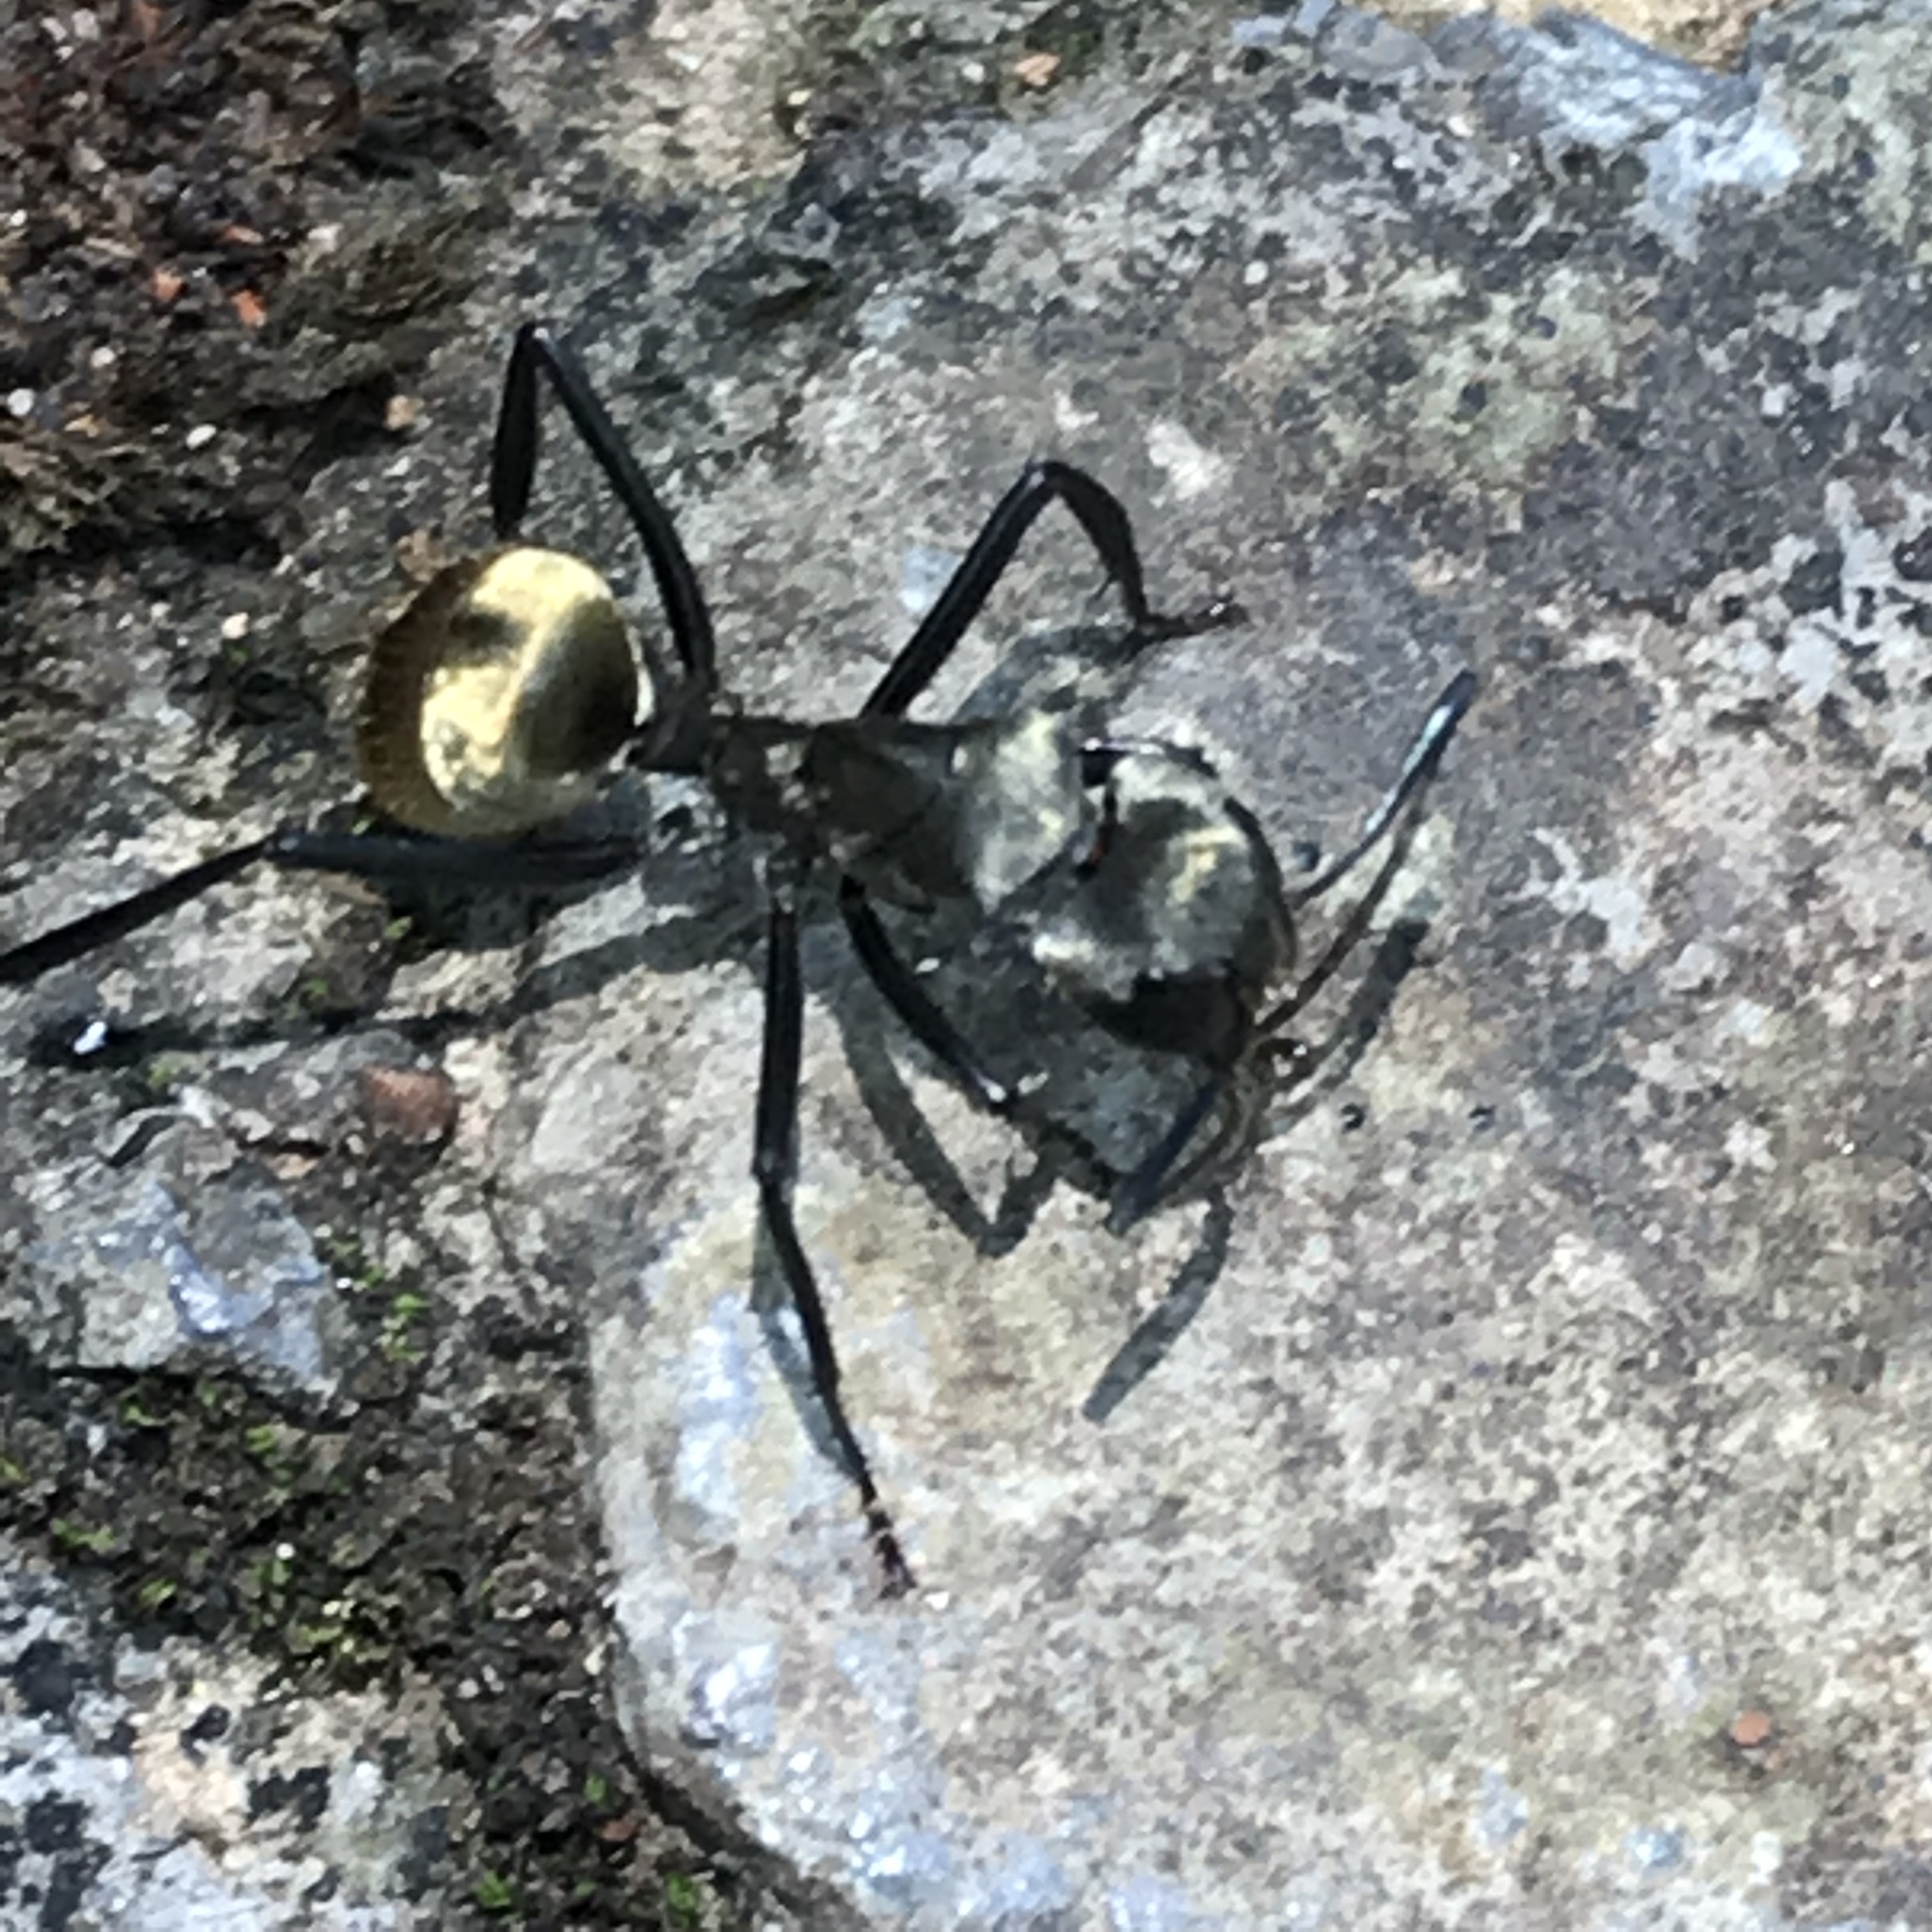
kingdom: Animalia
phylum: Arthropoda
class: Insecta
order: Hymenoptera
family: Formicidae
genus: Camponotus
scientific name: Camponotus sericeiventris
